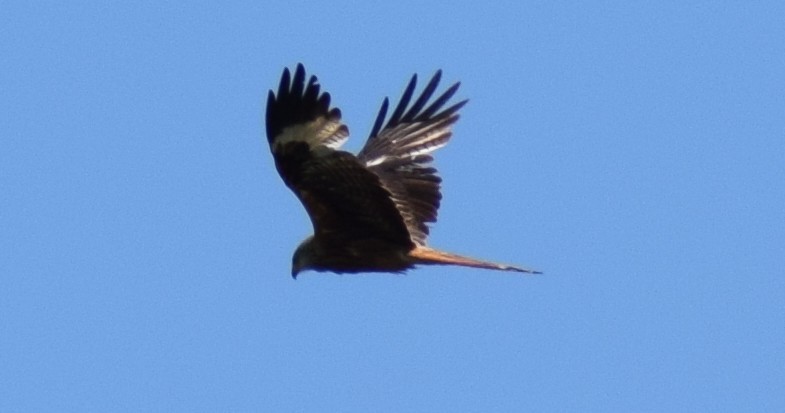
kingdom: Animalia
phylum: Chordata
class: Aves
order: Accipitriformes
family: Accipitridae
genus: Milvus
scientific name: Milvus milvus
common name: Red kite
